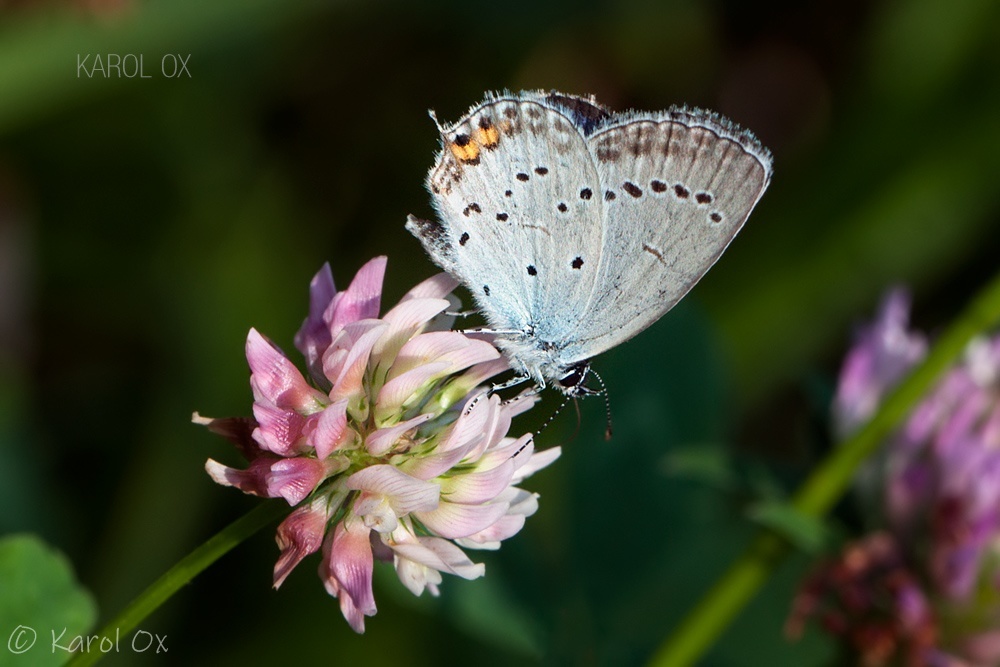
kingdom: Animalia
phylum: Arthropoda
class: Insecta
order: Lepidoptera
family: Lycaenidae
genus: Elkalyce
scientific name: Elkalyce argiades
